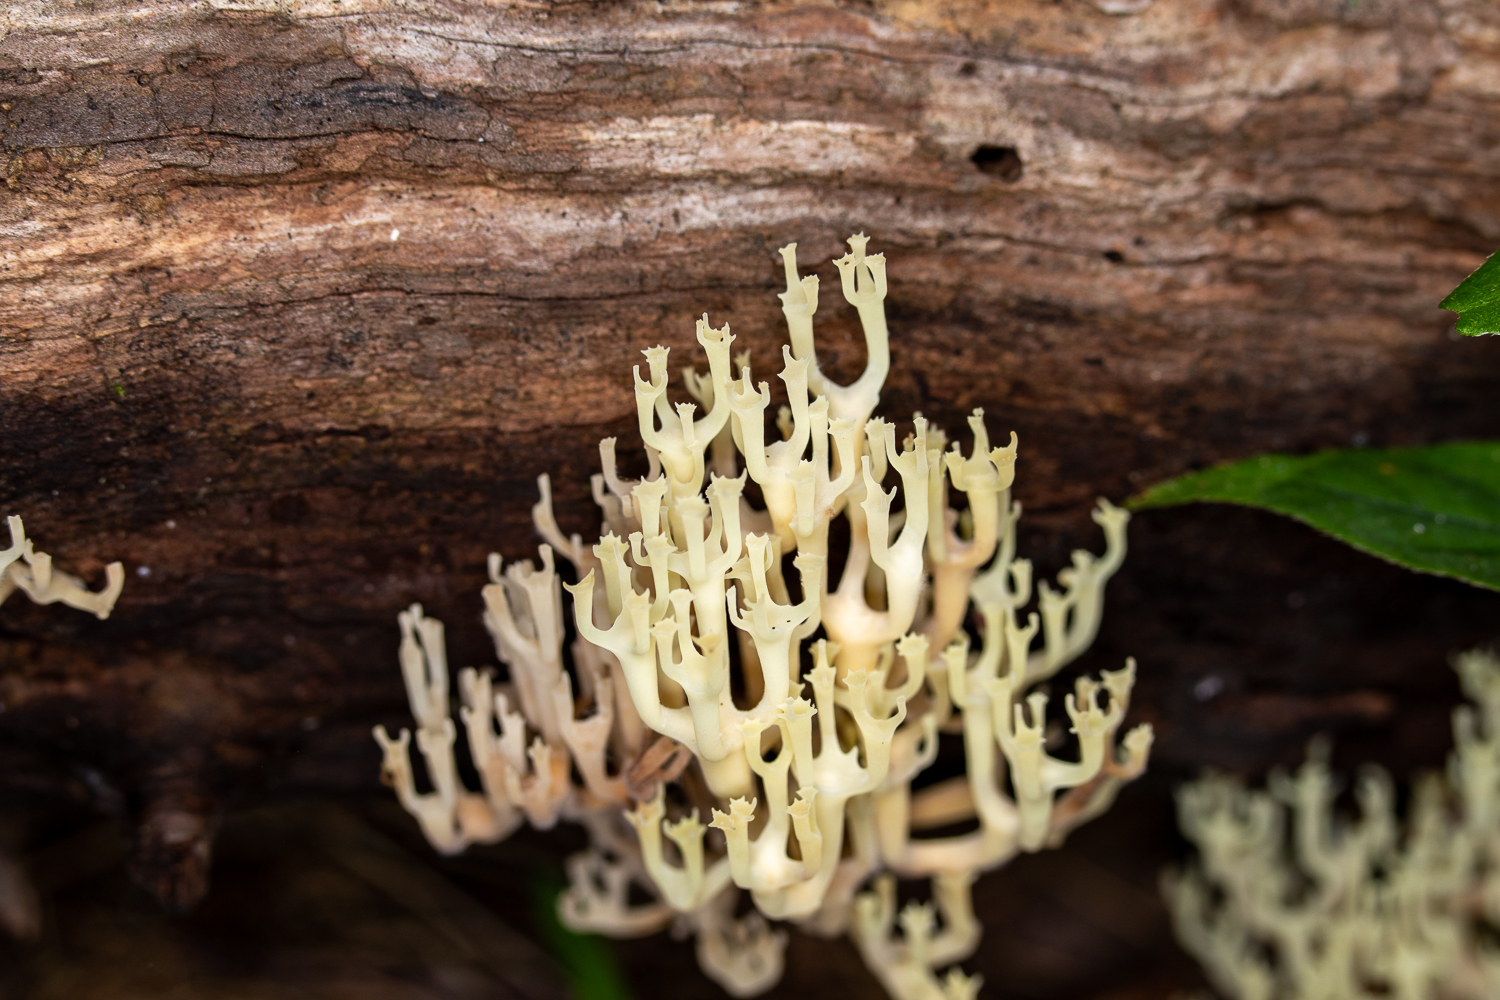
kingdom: Fungi
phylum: Basidiomycota
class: Agaricomycetes
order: Russulales
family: Auriscalpiaceae
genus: Artomyces
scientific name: Artomyces pyxidatus
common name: Crown-tipped coral fungus
